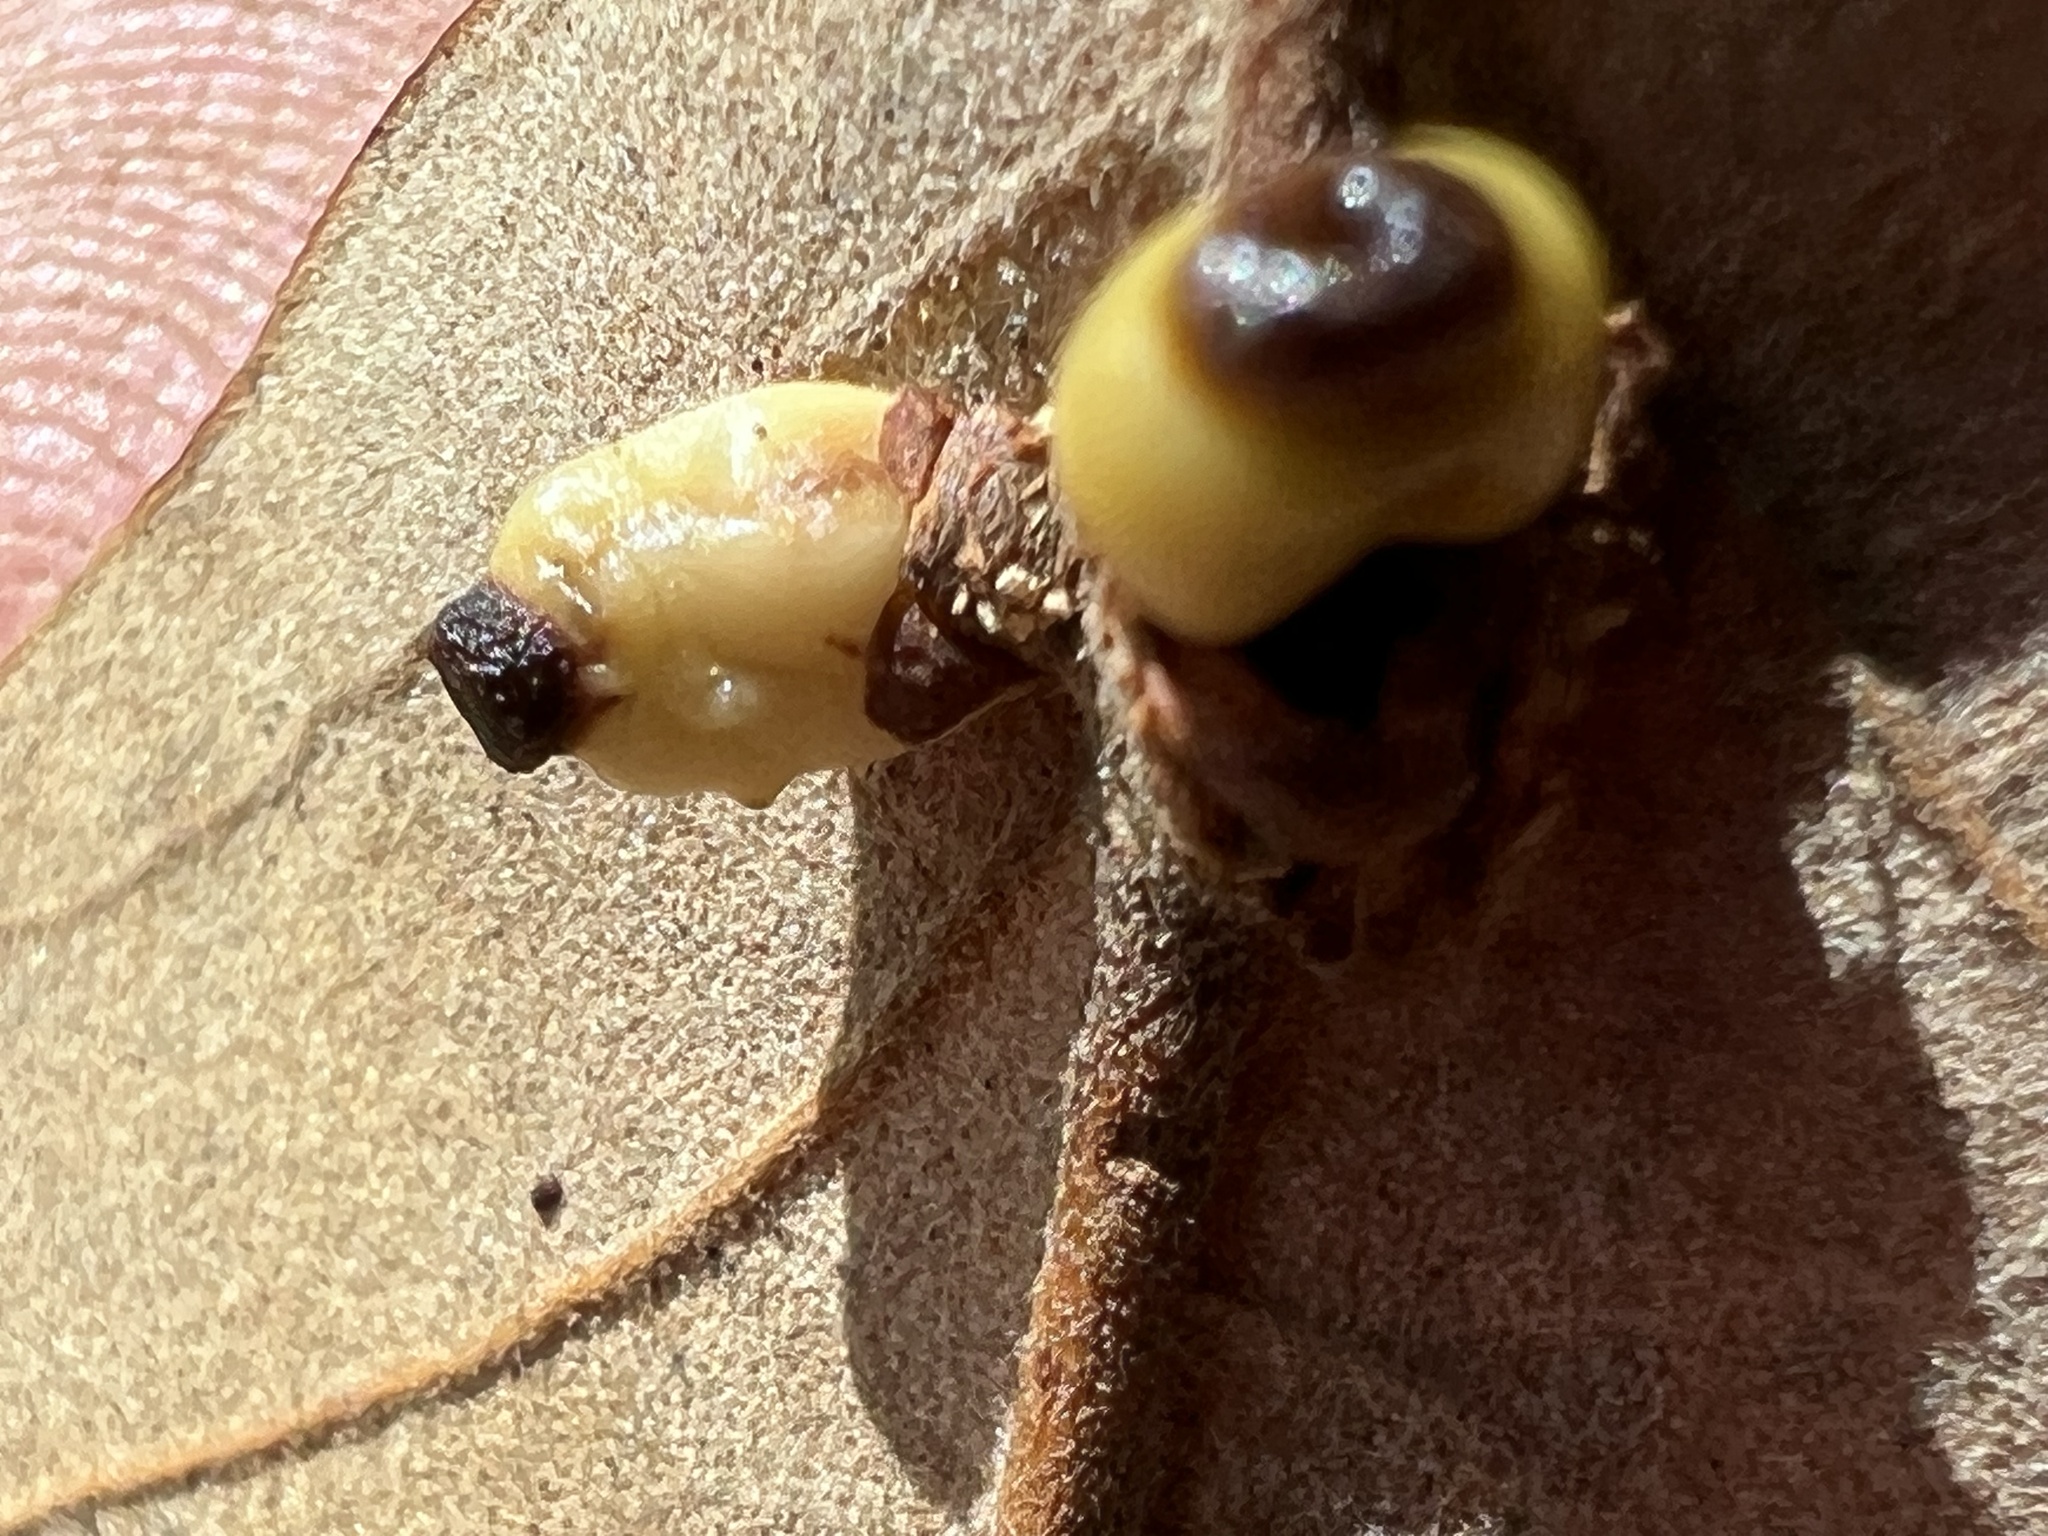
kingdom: Animalia
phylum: Arthropoda
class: Insecta
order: Hymenoptera
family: Cynipidae
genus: Kokkocynips
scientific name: Kokkocynips decidua
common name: Oak wheat gall
